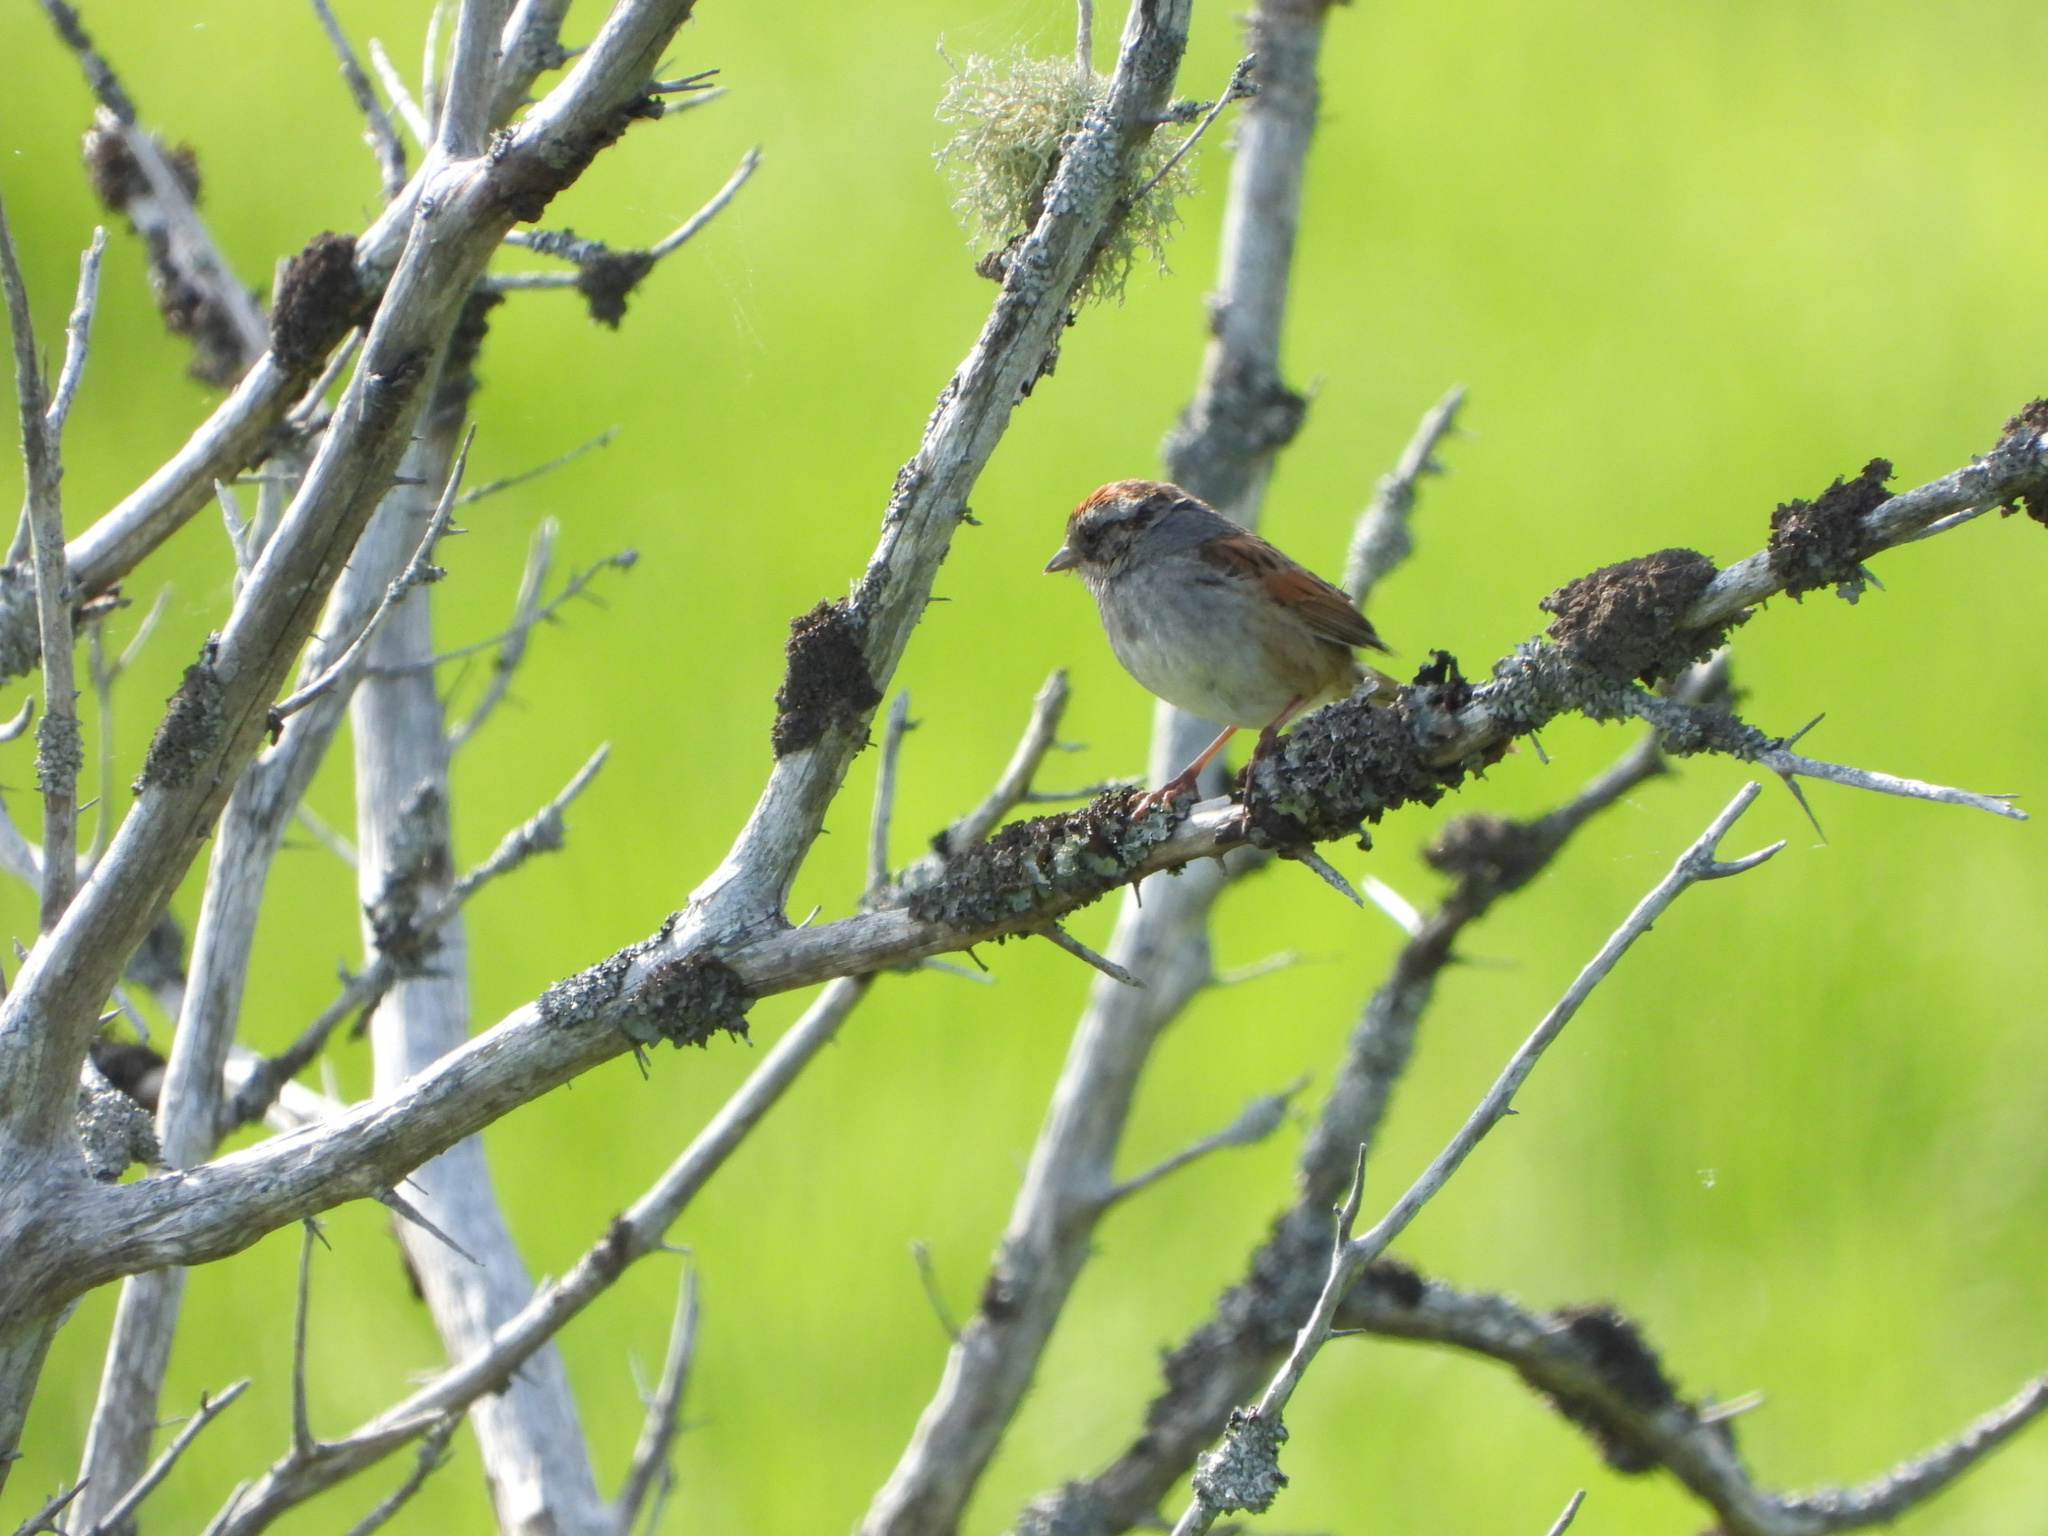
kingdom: Animalia
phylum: Chordata
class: Aves
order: Passeriformes
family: Passerellidae
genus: Melospiza
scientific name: Melospiza georgiana
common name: Swamp sparrow
